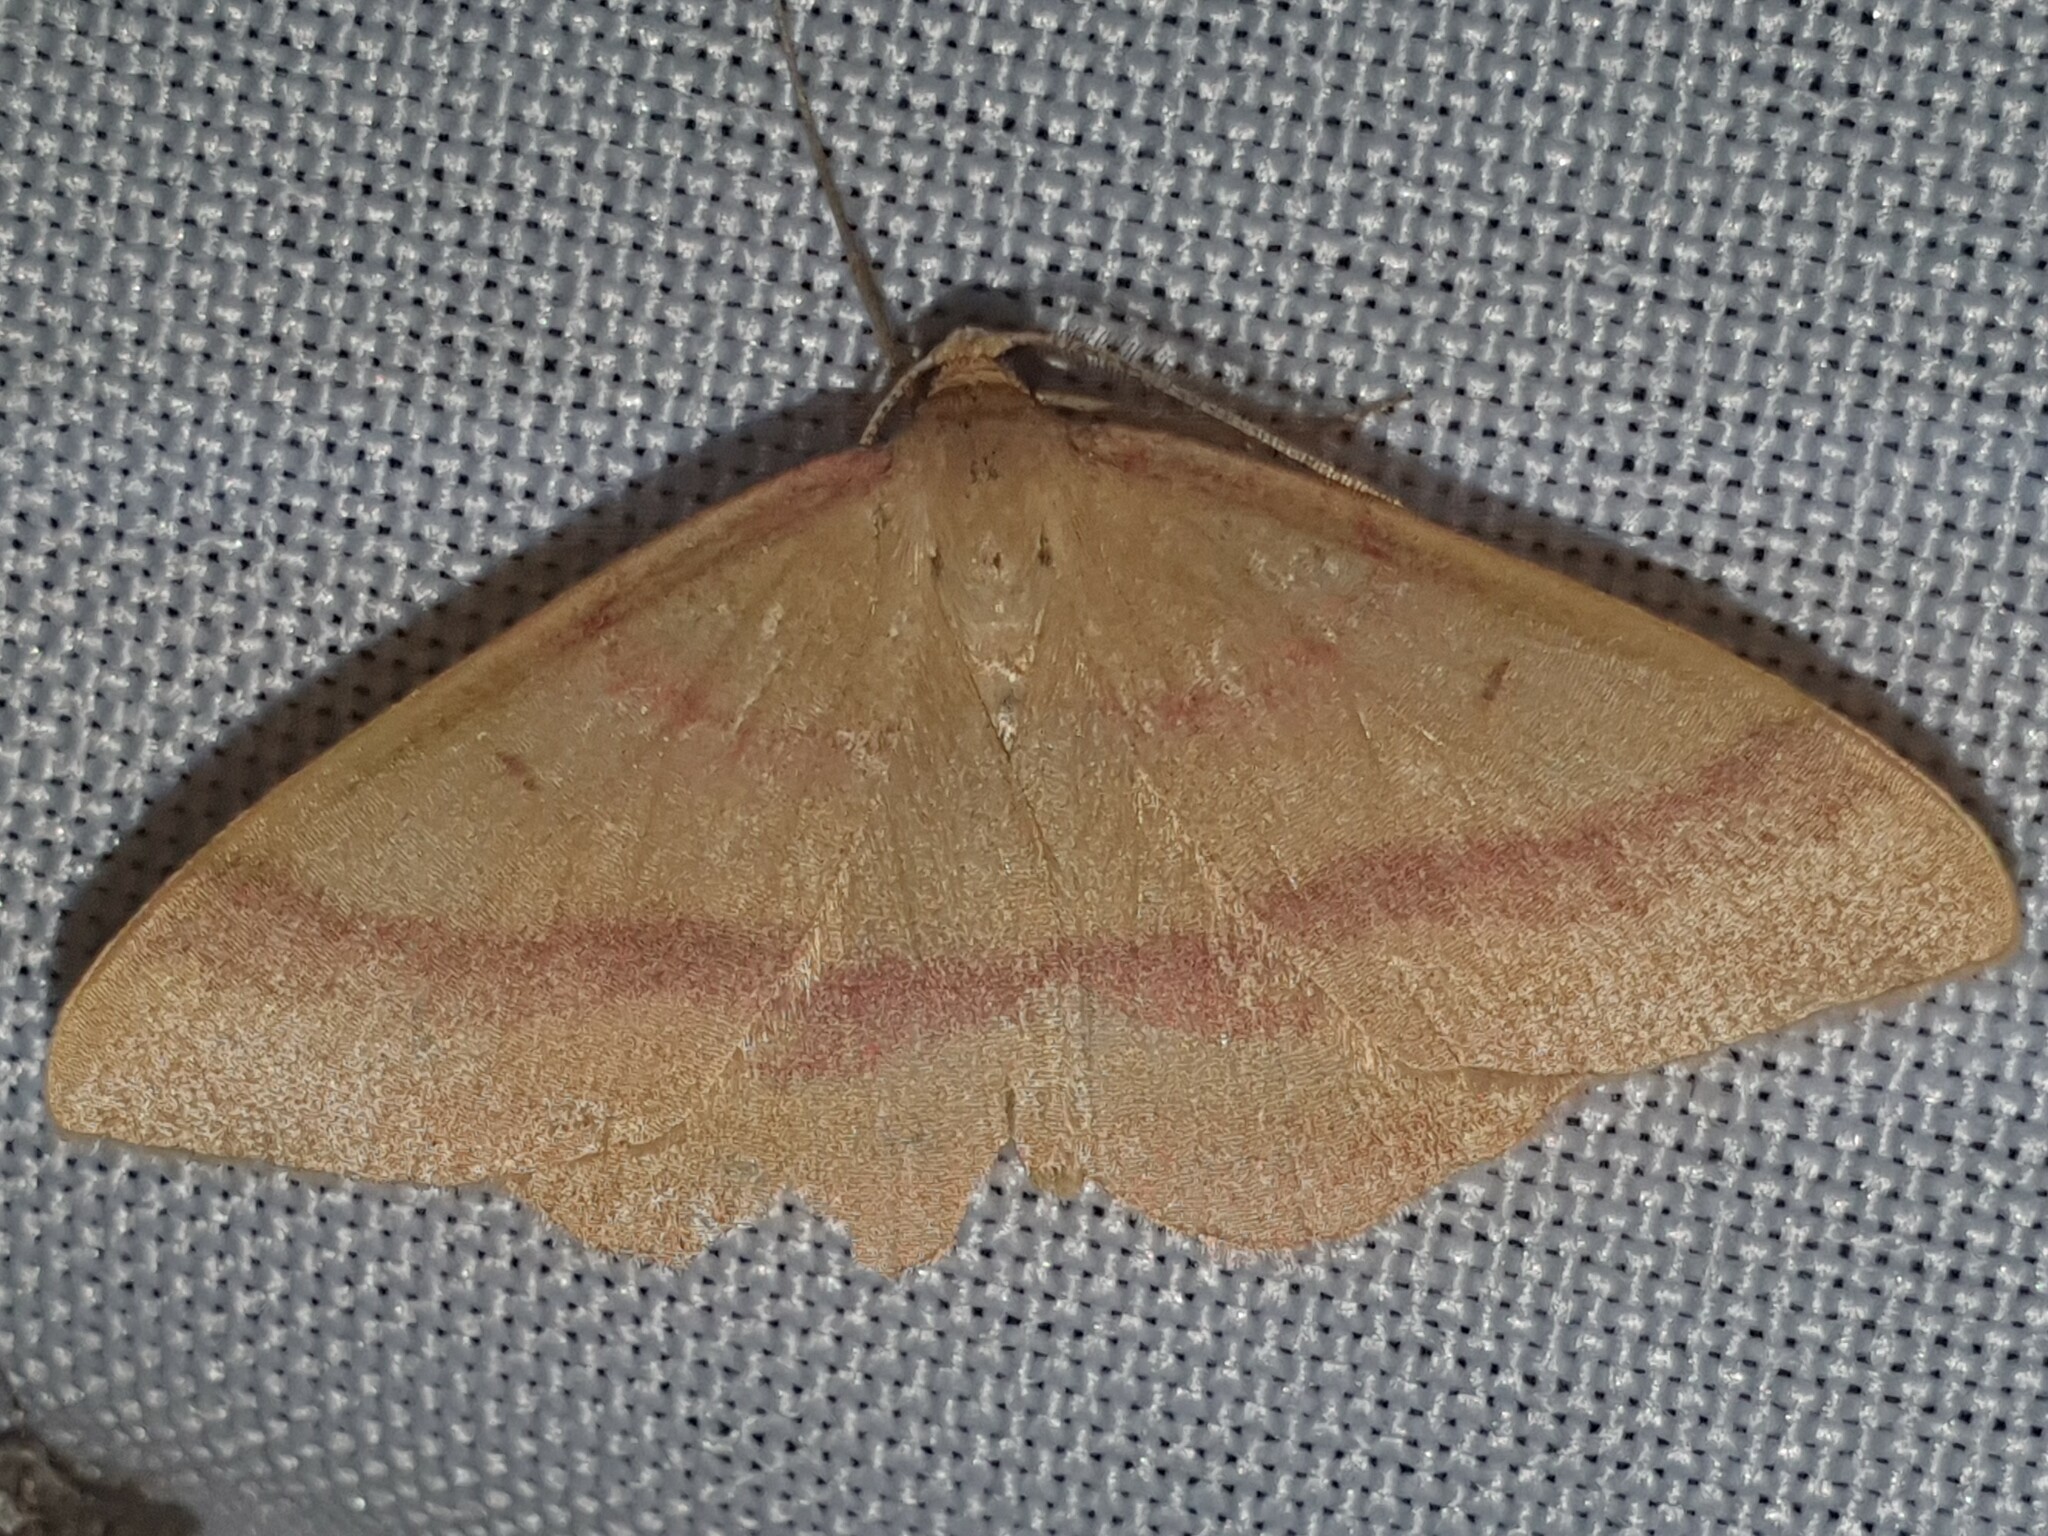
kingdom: Animalia
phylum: Arthropoda
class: Insecta
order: Lepidoptera
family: Geometridae
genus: Rhodostrophia
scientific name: Rhodostrophia vibicaria
